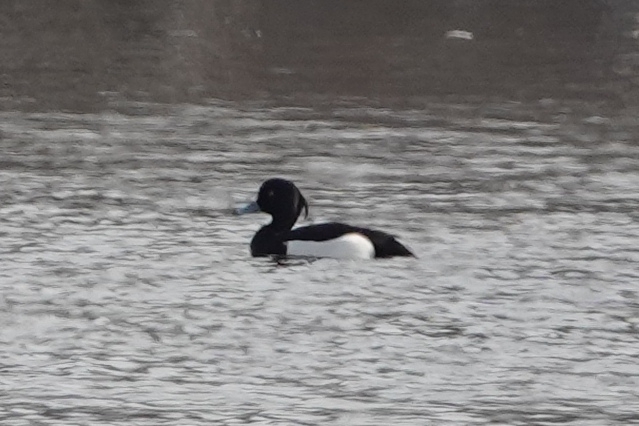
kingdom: Animalia
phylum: Chordata
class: Aves
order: Anseriformes
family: Anatidae
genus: Aythya
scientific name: Aythya fuligula
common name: Tufted duck
